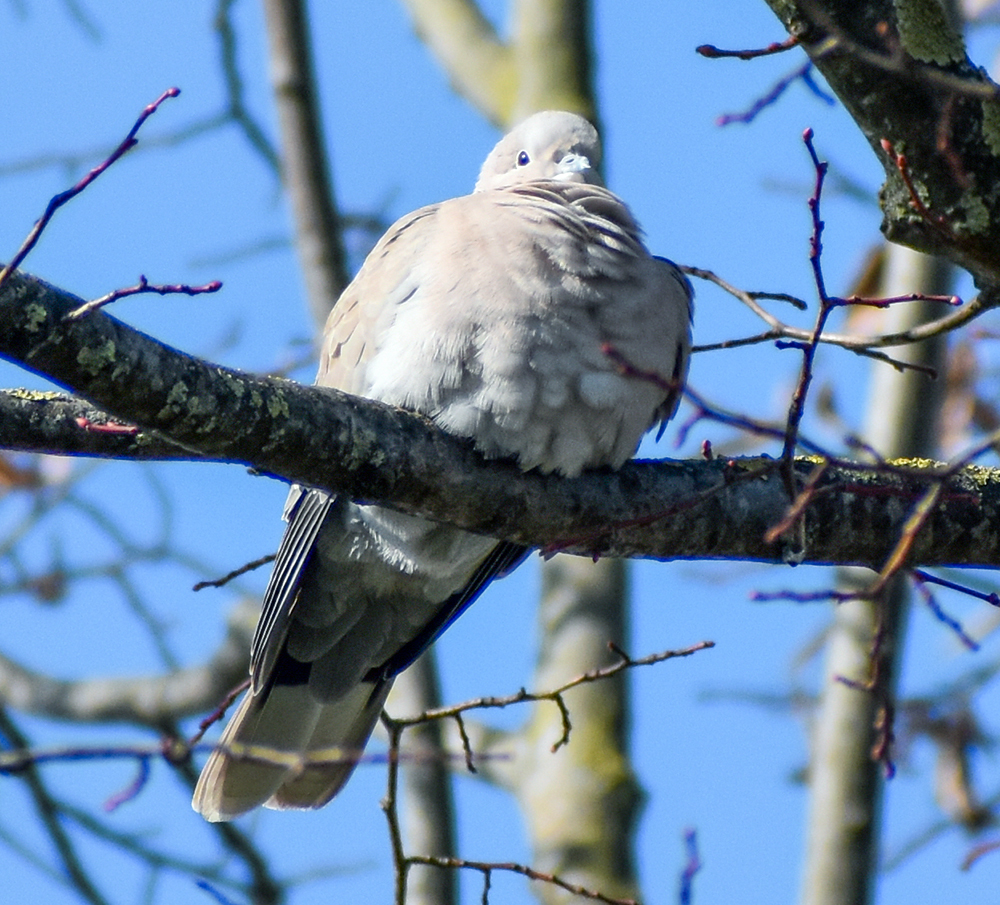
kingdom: Animalia
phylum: Chordata
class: Aves
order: Columbiformes
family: Columbidae
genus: Streptopelia
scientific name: Streptopelia decaocto
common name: Eurasian collared dove
